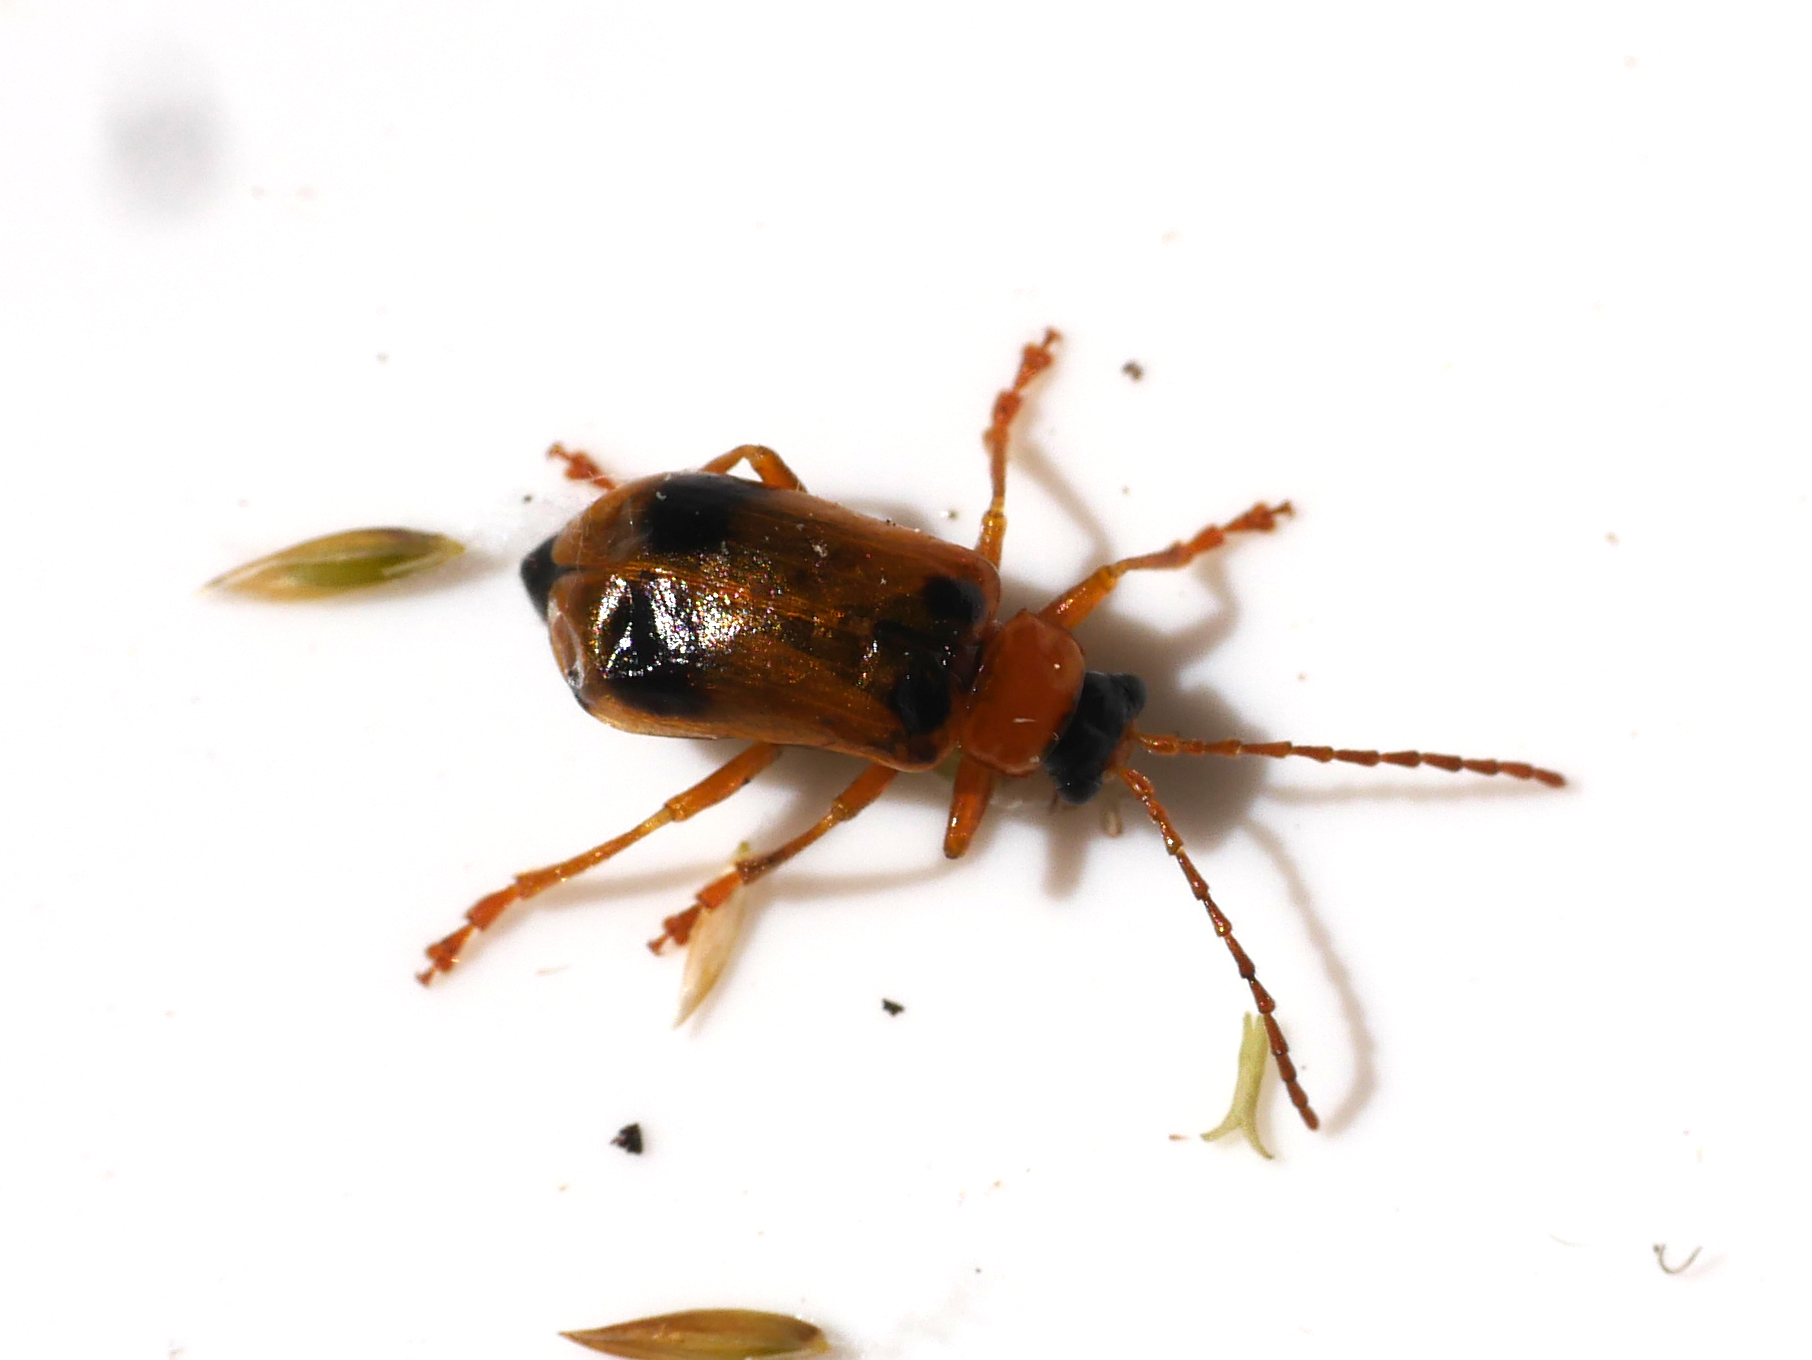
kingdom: Animalia
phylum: Arthropoda
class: Insecta
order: Coleoptera
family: Chrysomelidae
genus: Phyllobrotica
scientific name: Phyllobrotica quadrimaculata
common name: Skullcap leaf beetle
